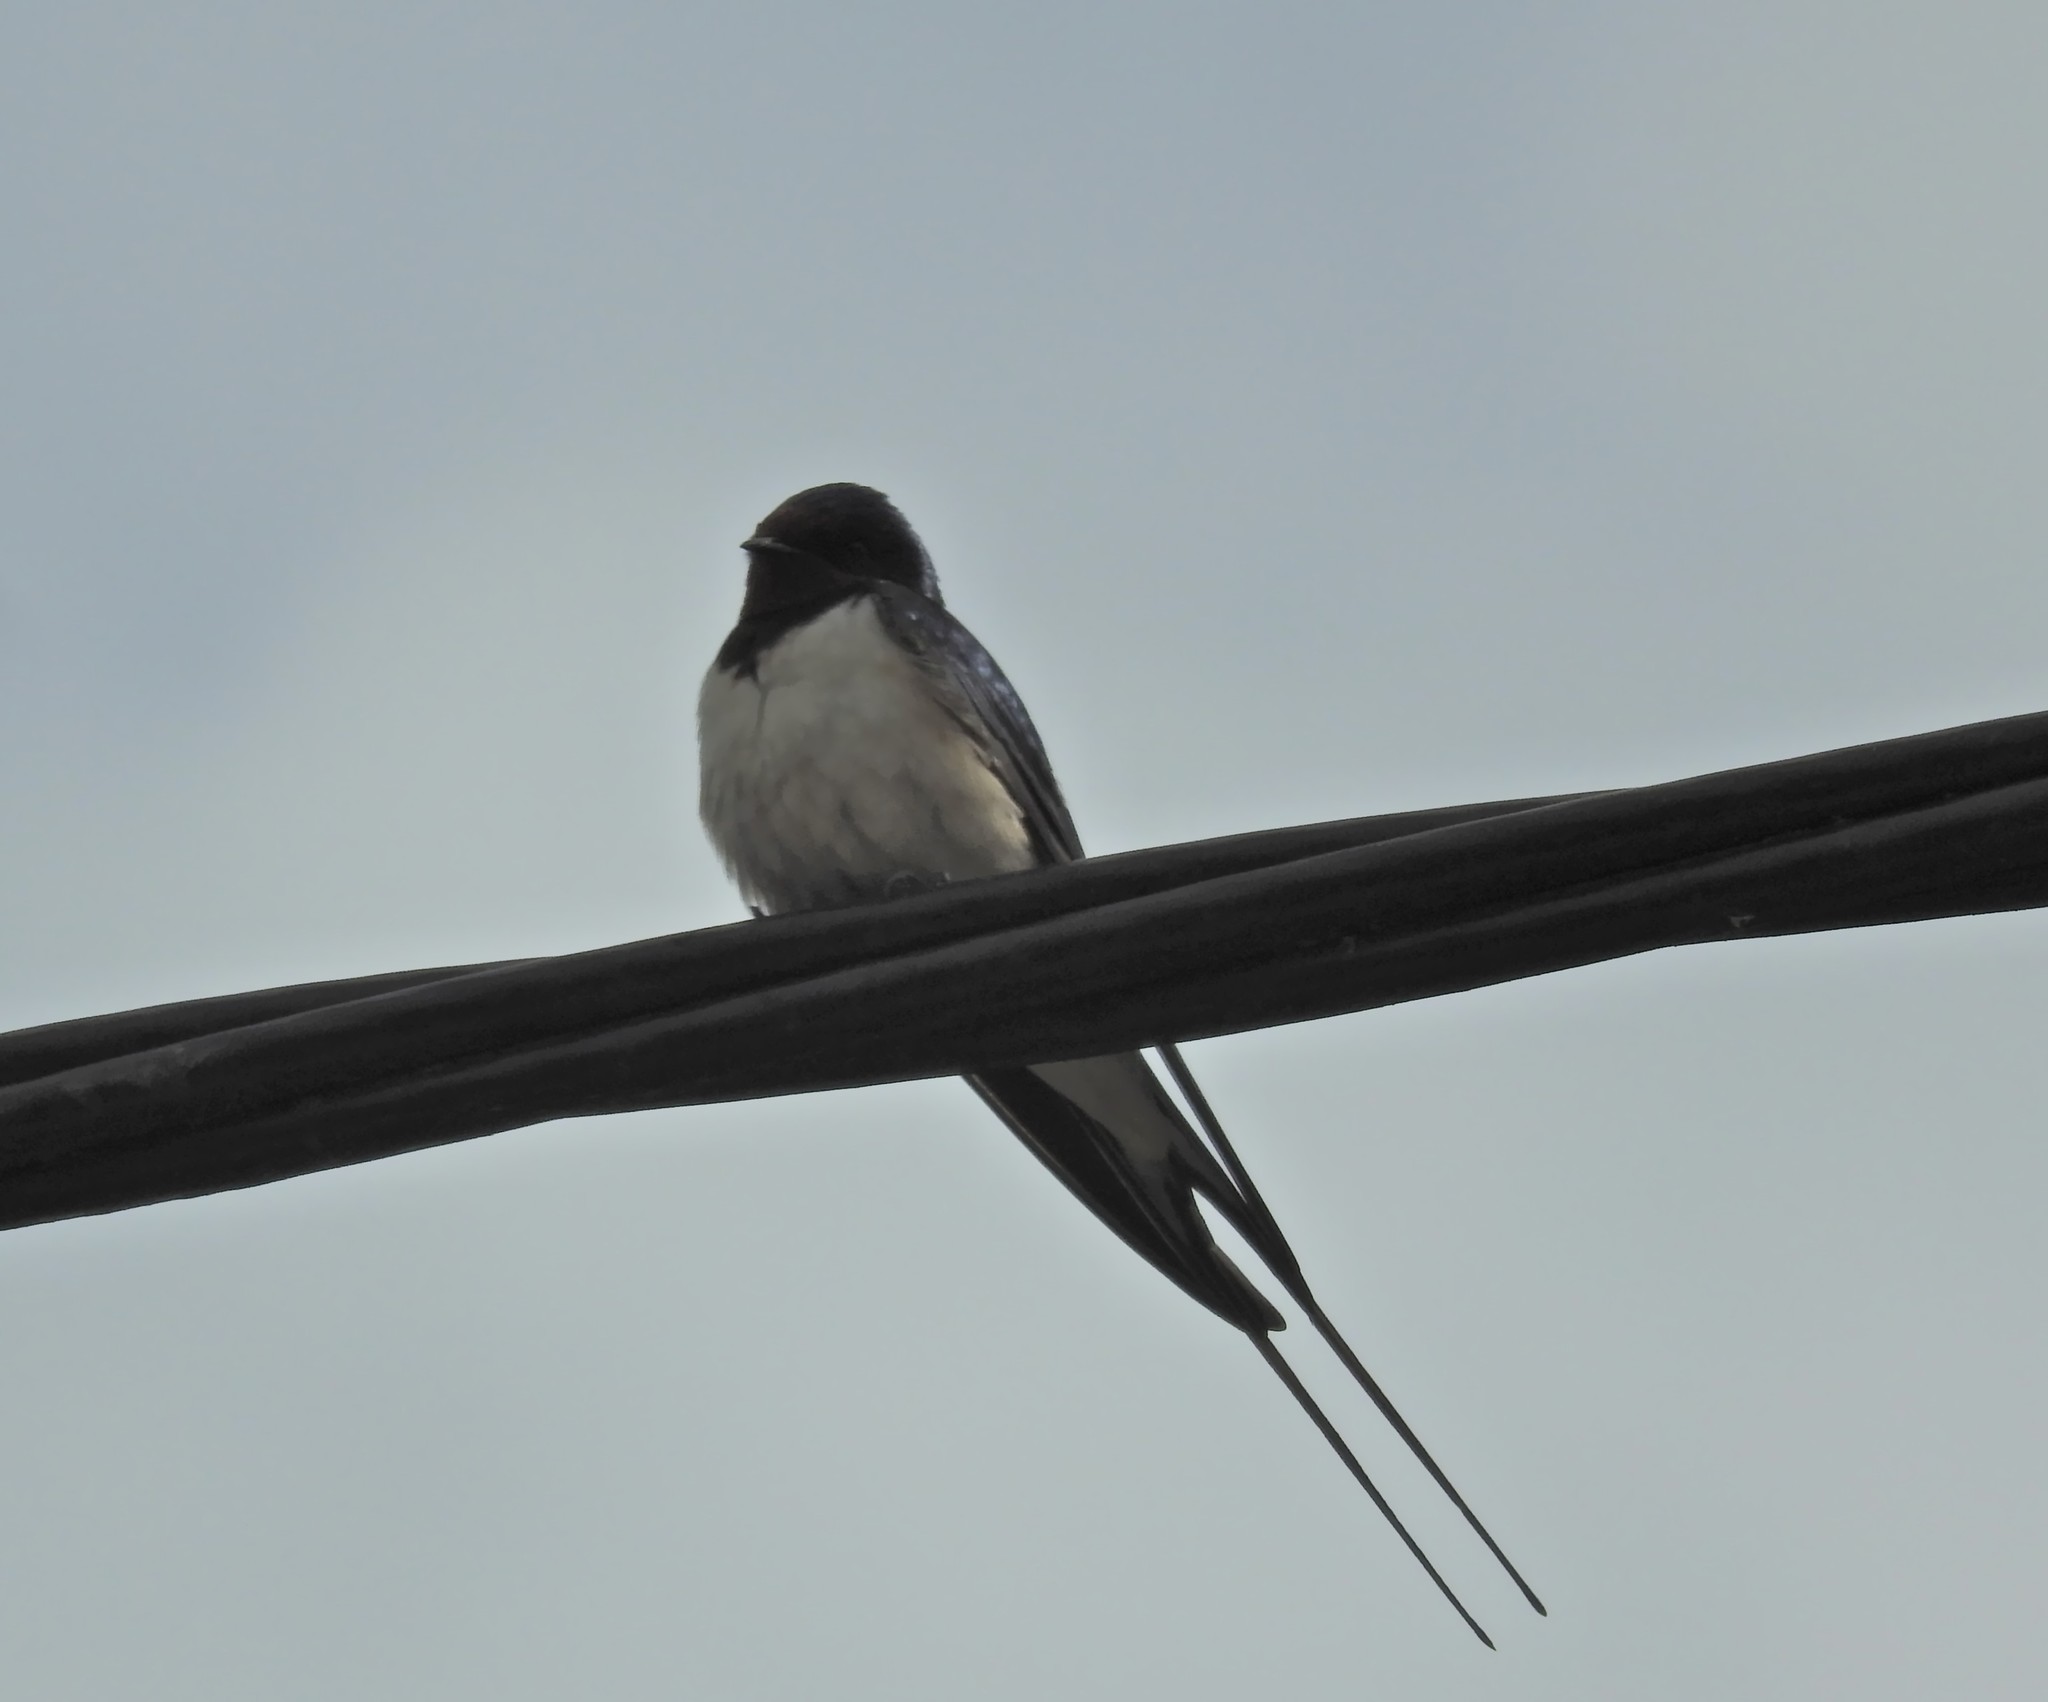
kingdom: Animalia
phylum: Chordata
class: Aves
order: Passeriformes
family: Hirundinidae
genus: Hirundo
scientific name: Hirundo rustica
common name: Barn swallow
